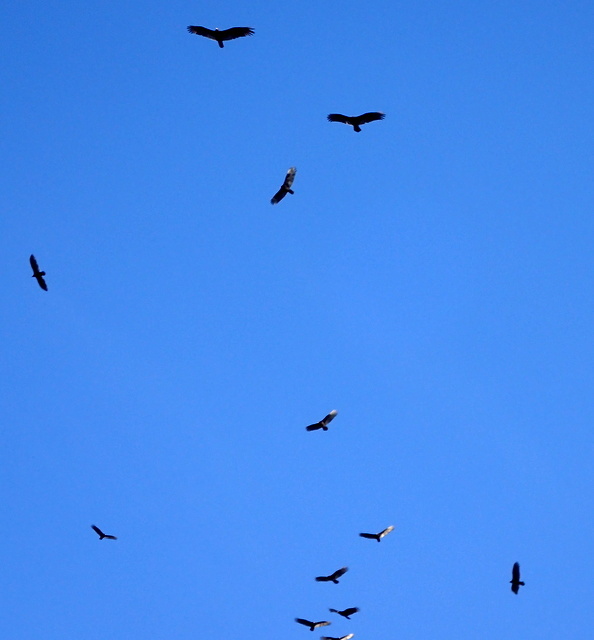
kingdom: Animalia
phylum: Chordata
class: Aves
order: Accipitriformes
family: Cathartidae
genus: Cathartes
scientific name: Cathartes aura
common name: Turkey vulture
